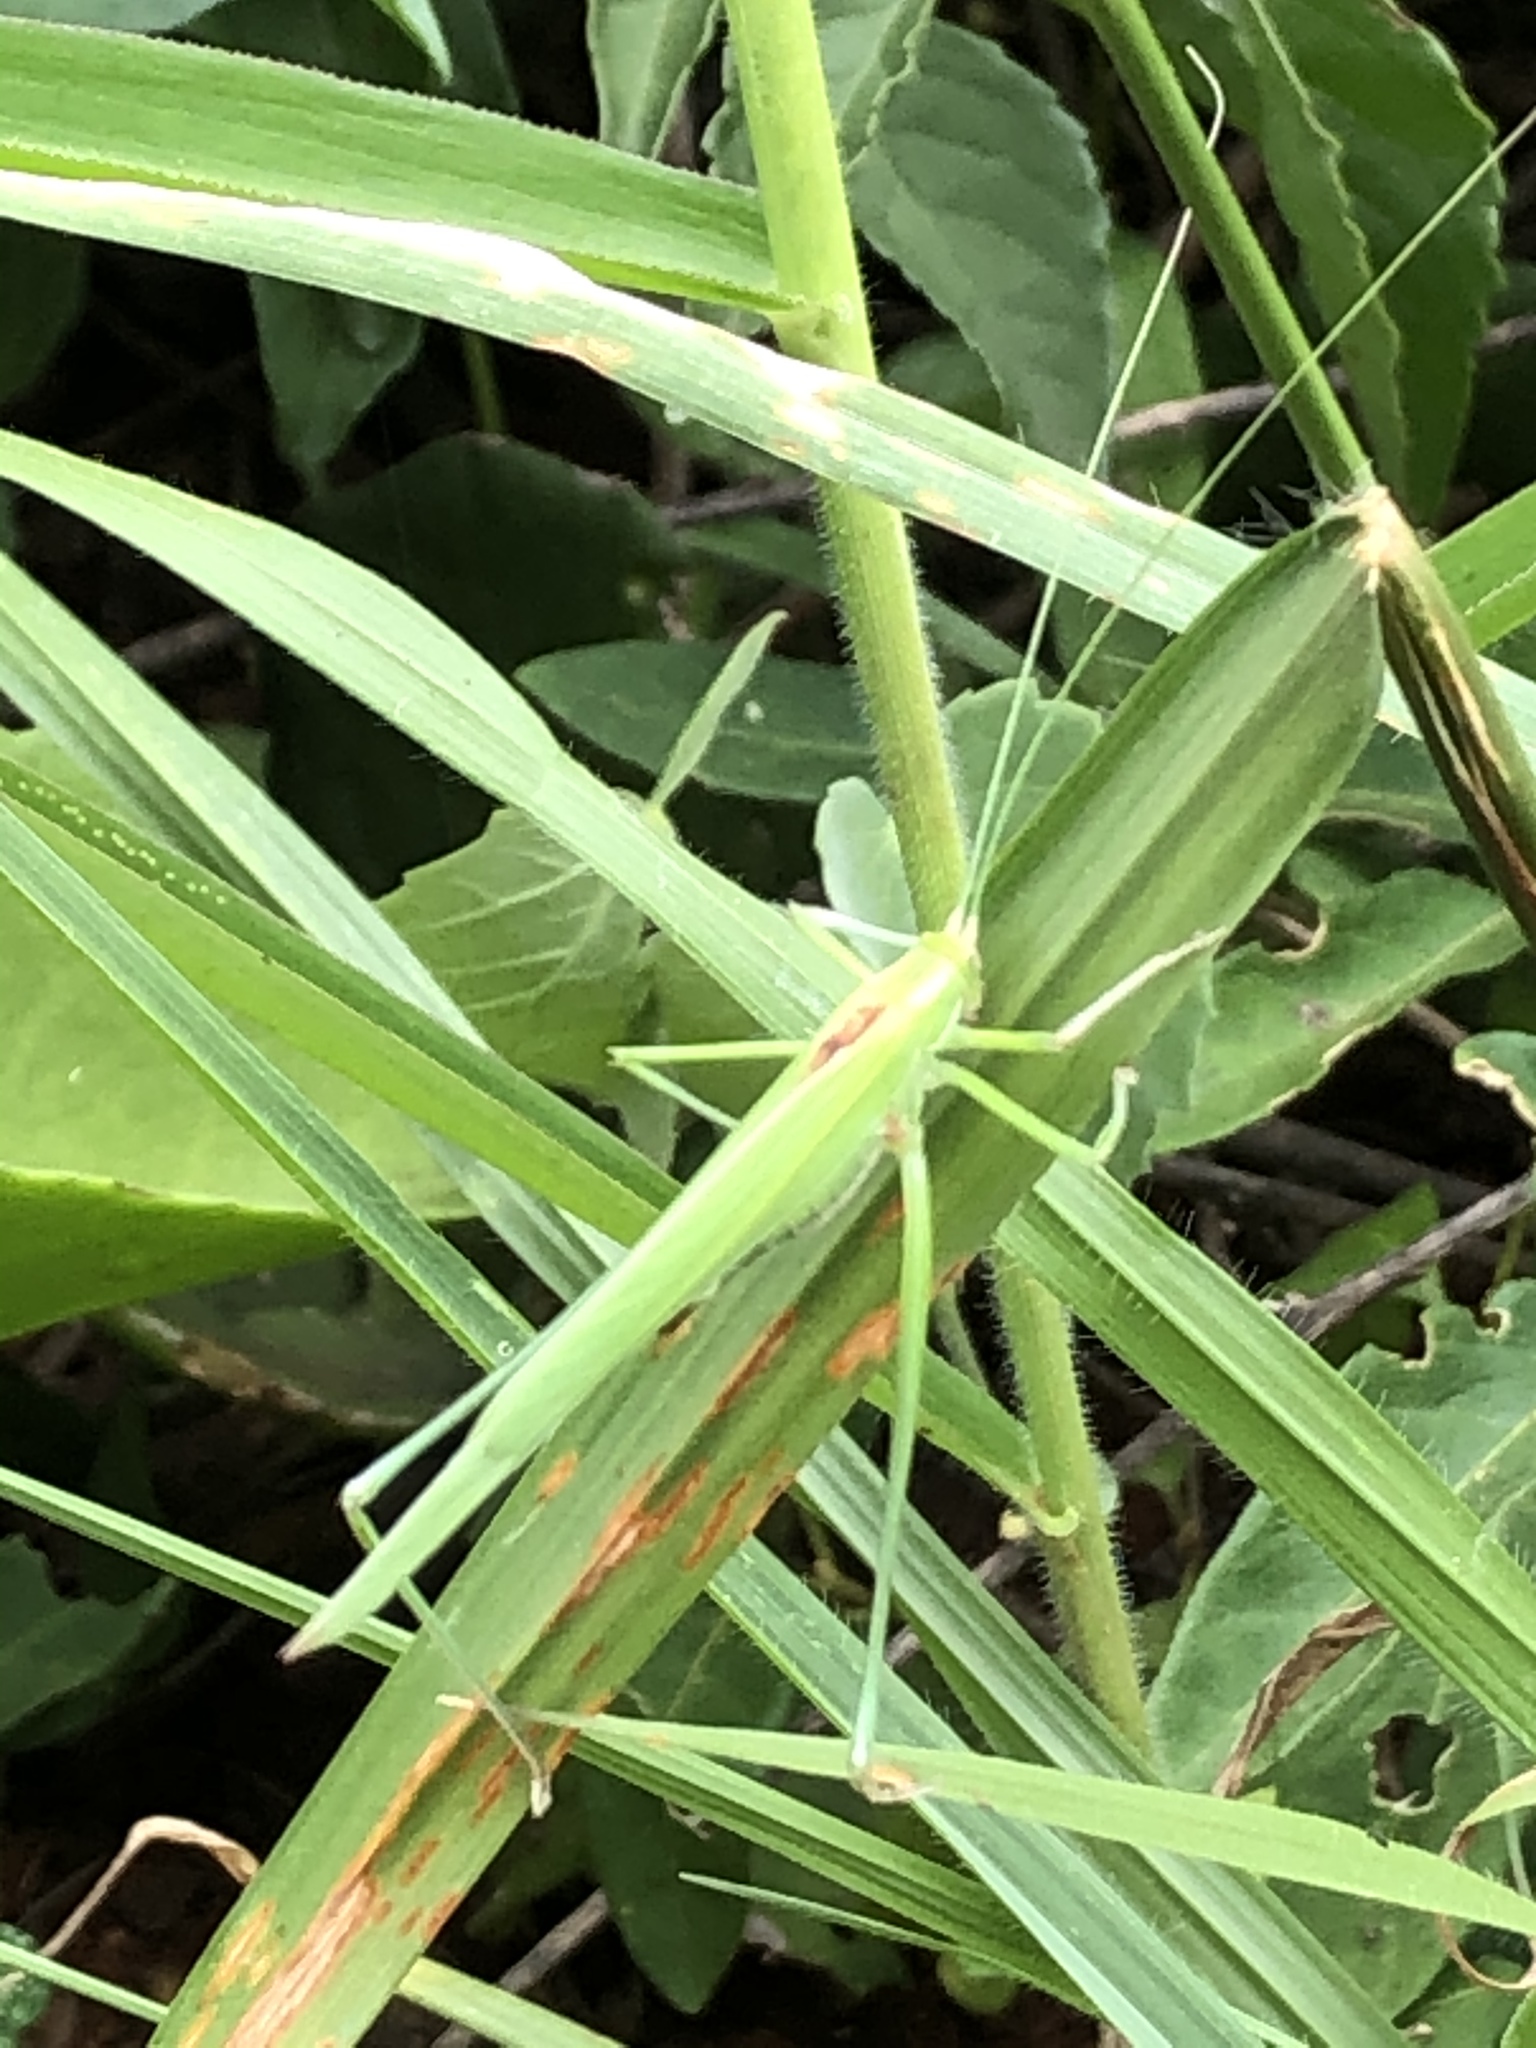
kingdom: Animalia
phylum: Arthropoda
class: Insecta
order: Orthoptera
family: Tettigoniidae
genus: Lamecosoma
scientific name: Lamecosoma inermis
